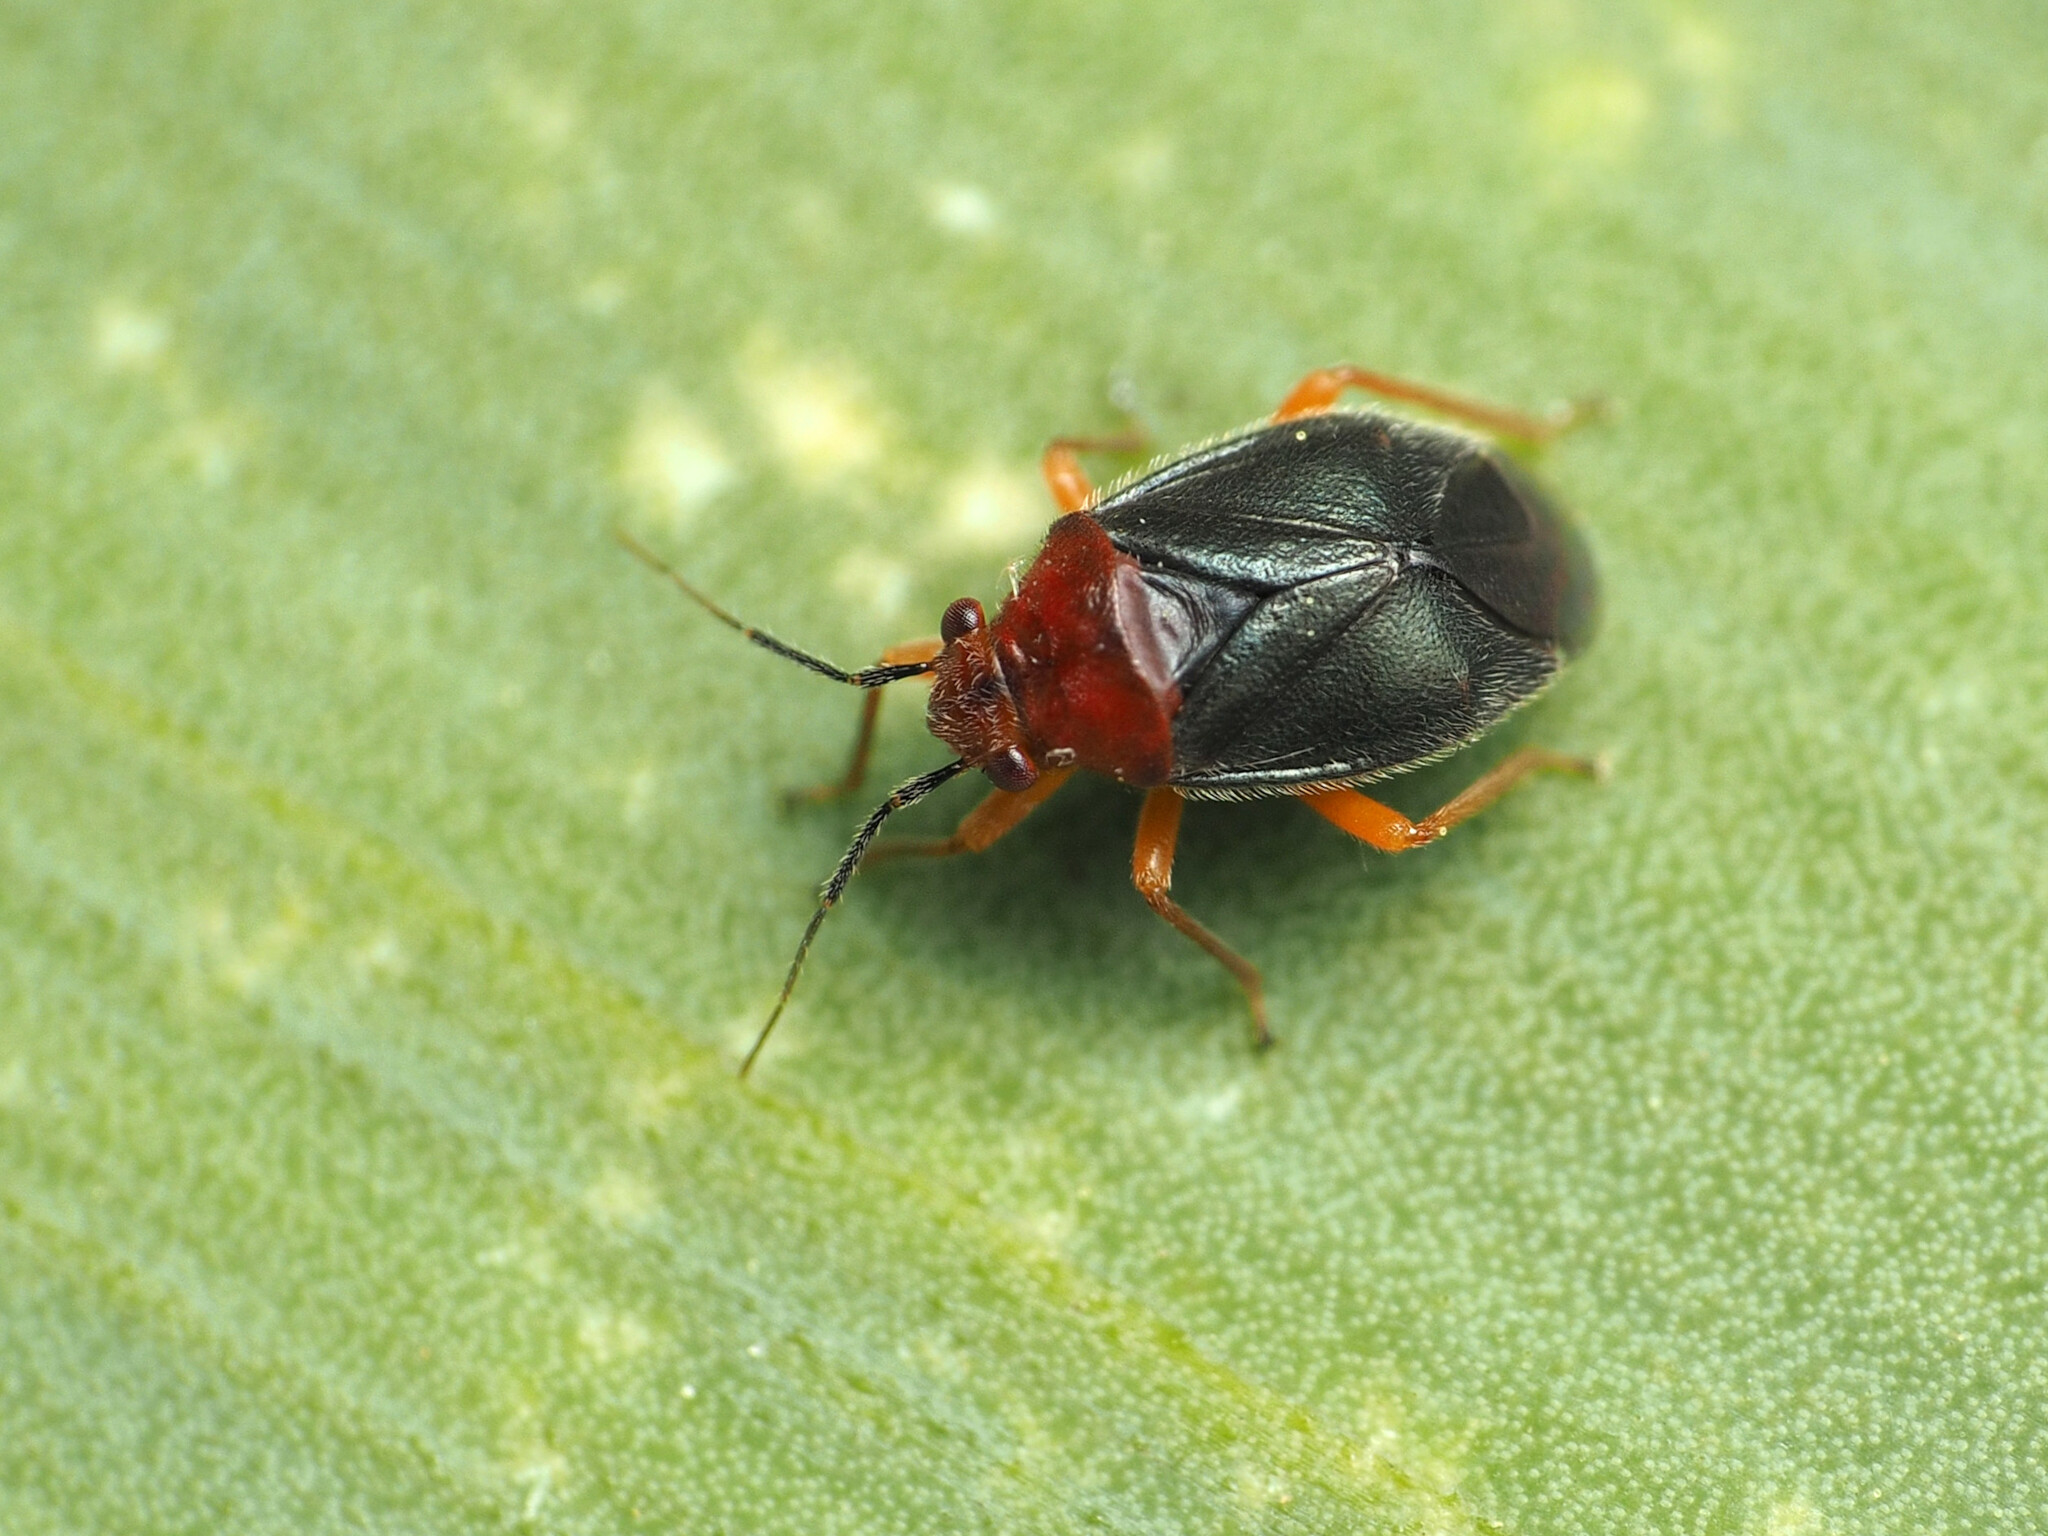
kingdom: Animalia
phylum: Arthropoda
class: Insecta
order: Hemiptera
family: Miridae
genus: Halticotoma
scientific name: Halticotoma valida
